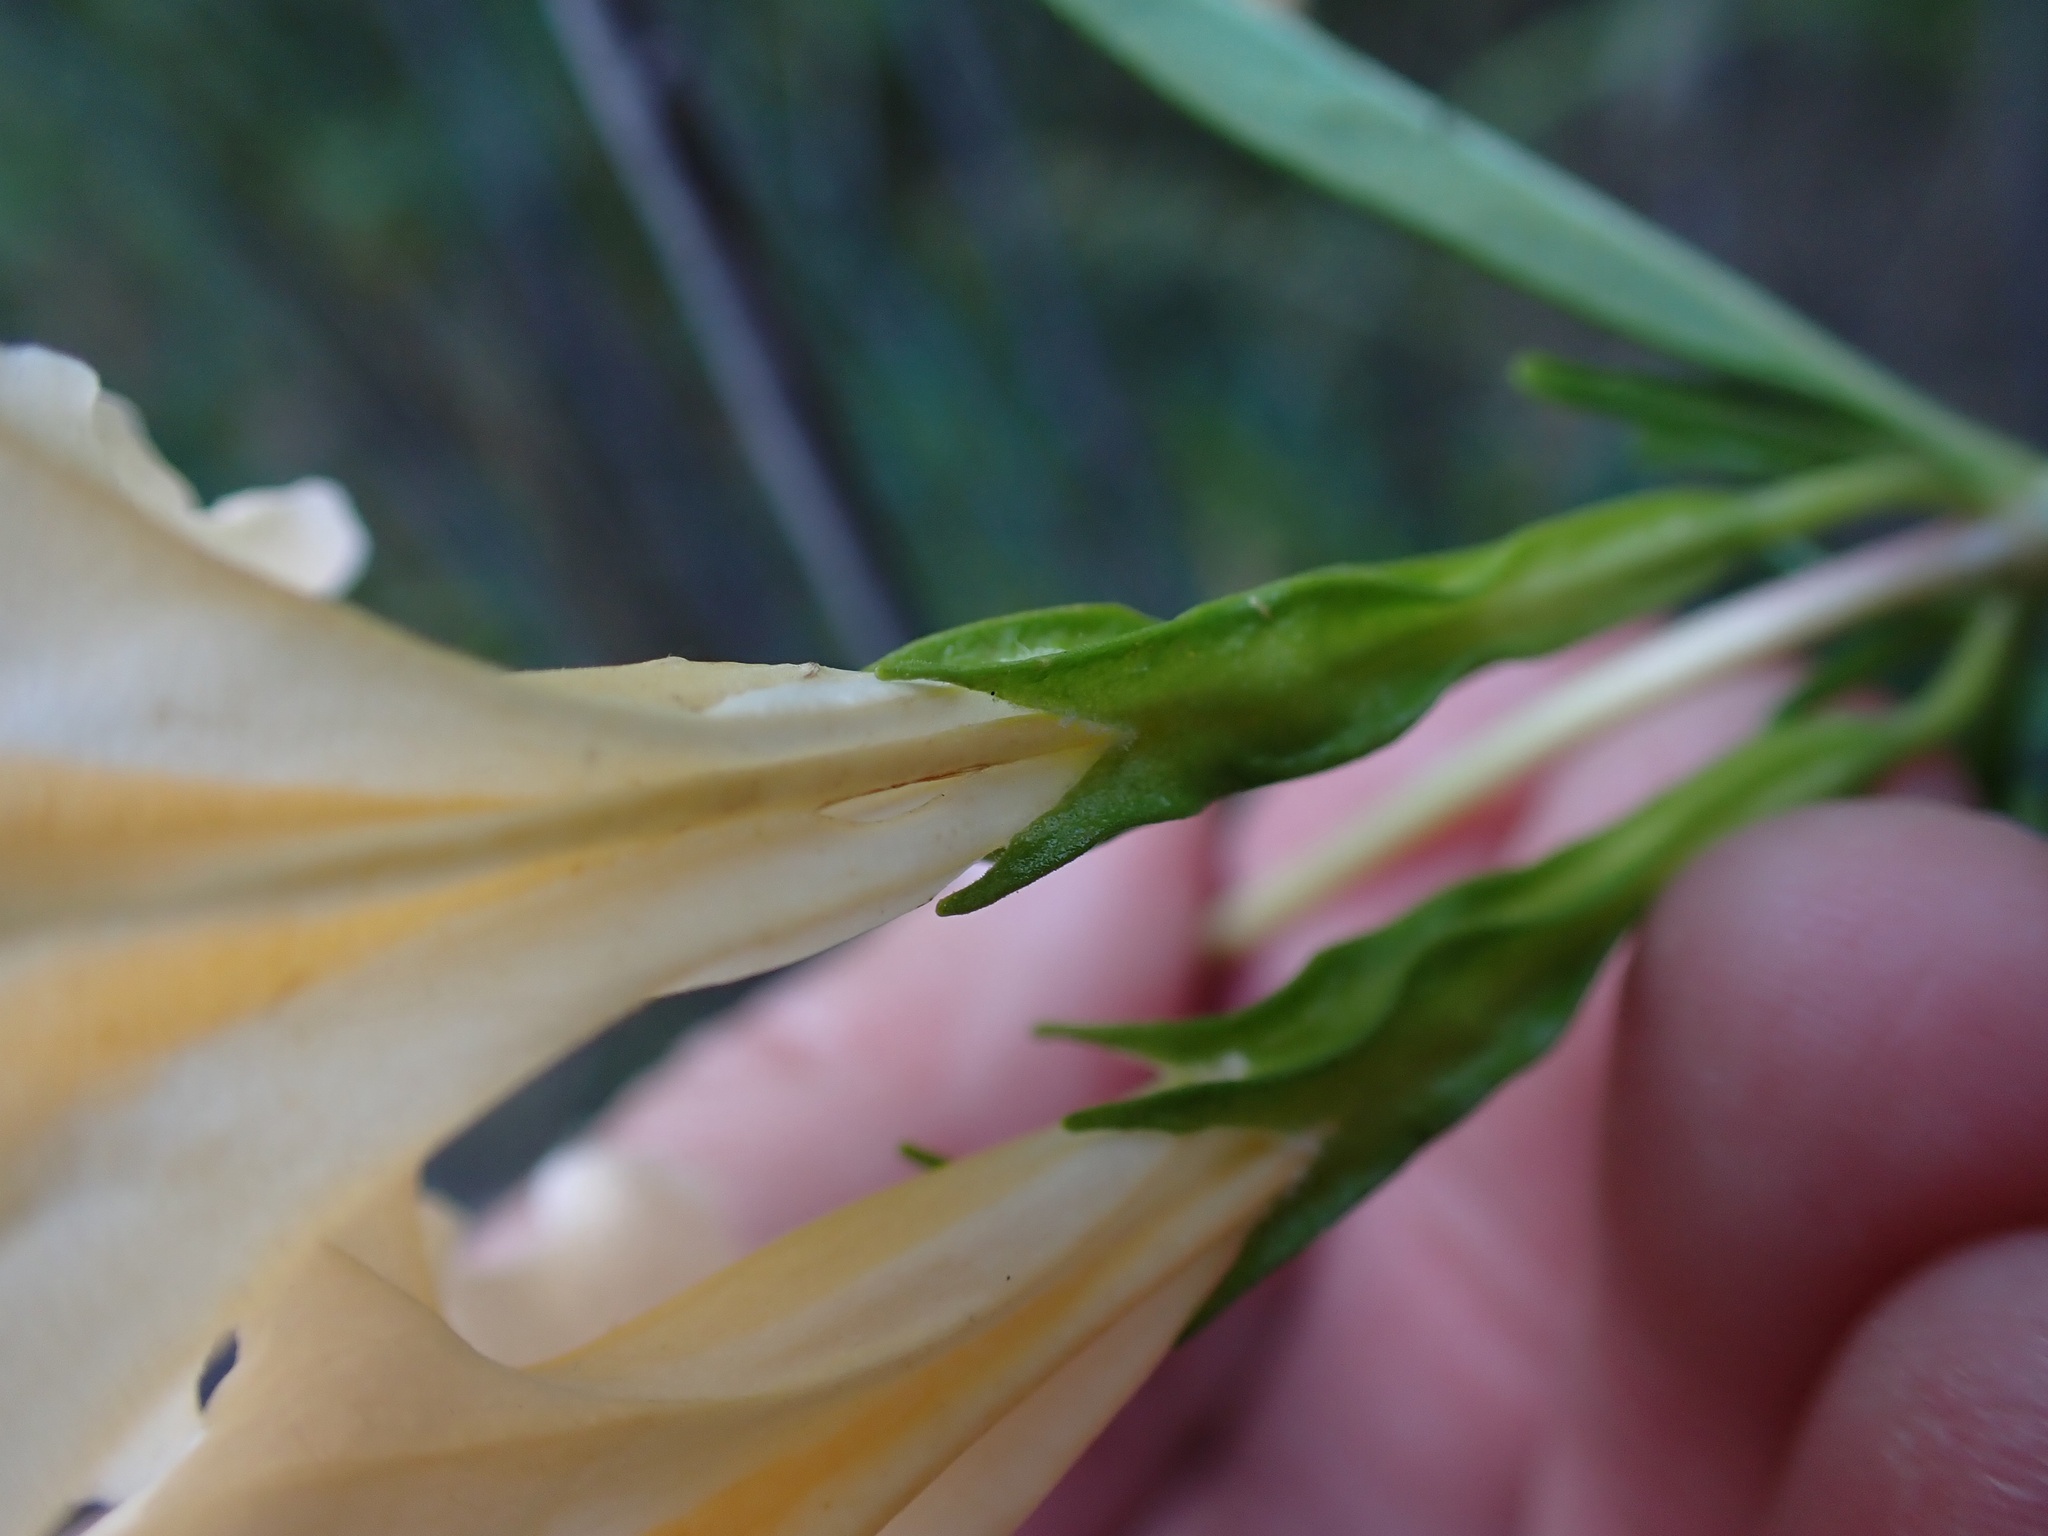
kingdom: Plantae
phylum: Tracheophyta
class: Magnoliopsida
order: Lamiales
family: Phrymaceae
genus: Diplacus
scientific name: Diplacus australis
